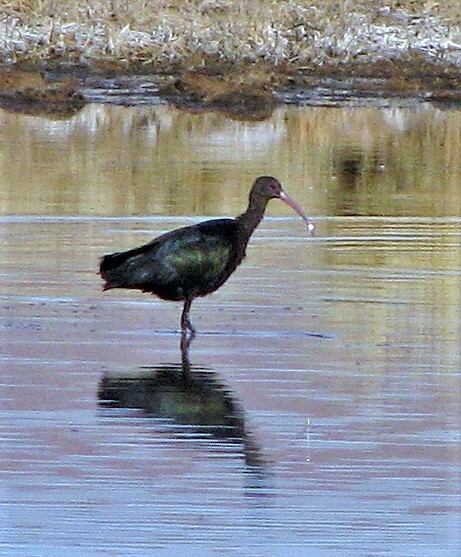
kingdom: Animalia
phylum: Chordata
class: Aves
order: Pelecaniformes
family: Threskiornithidae
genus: Plegadis
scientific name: Plegadis ridgwayi
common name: Puna ibis
